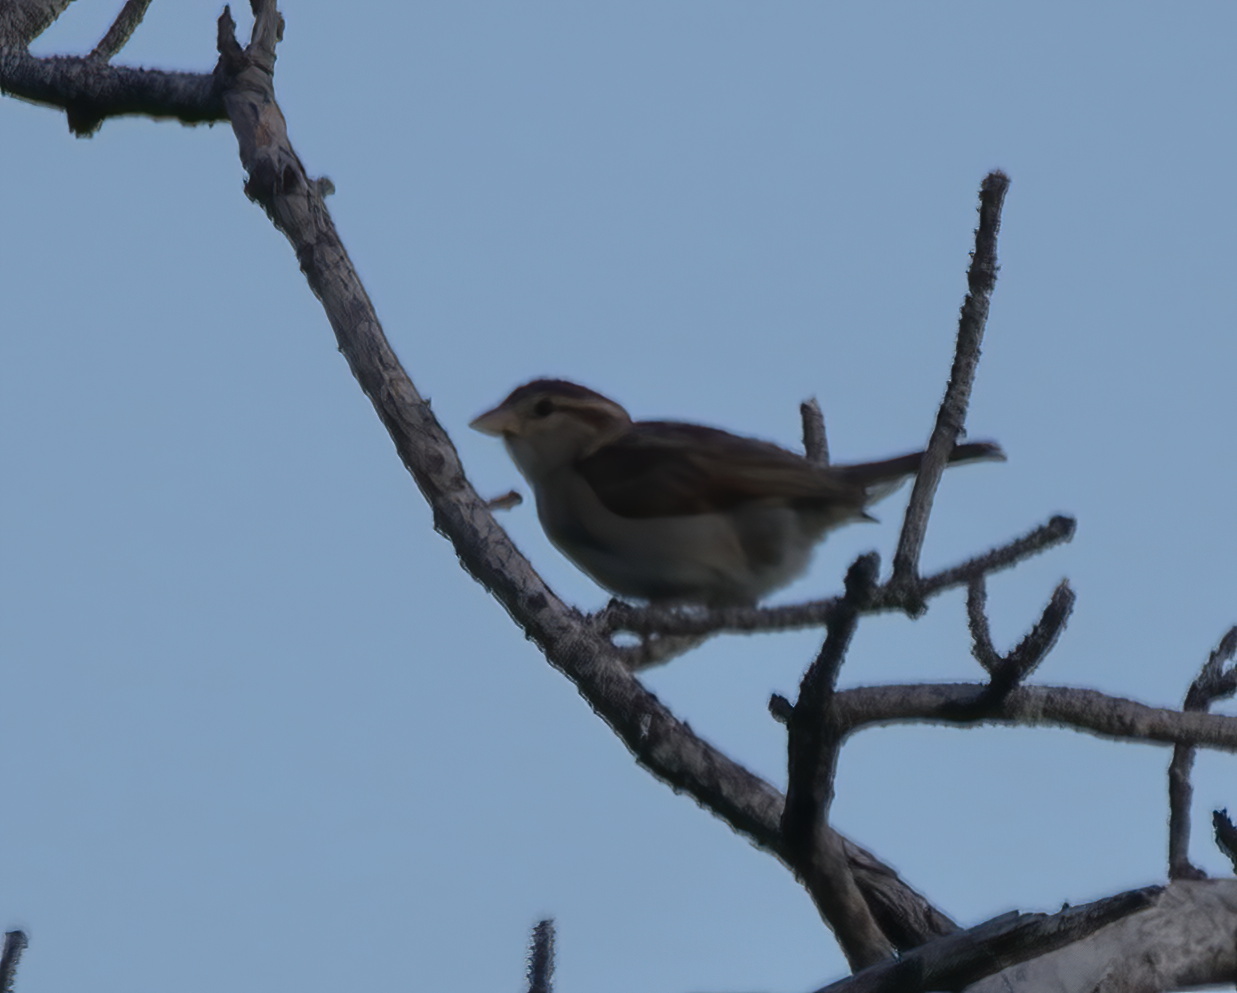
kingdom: Animalia
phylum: Chordata
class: Aves
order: Passeriformes
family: Passeridae
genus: Passer
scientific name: Passer domesticus
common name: House sparrow
